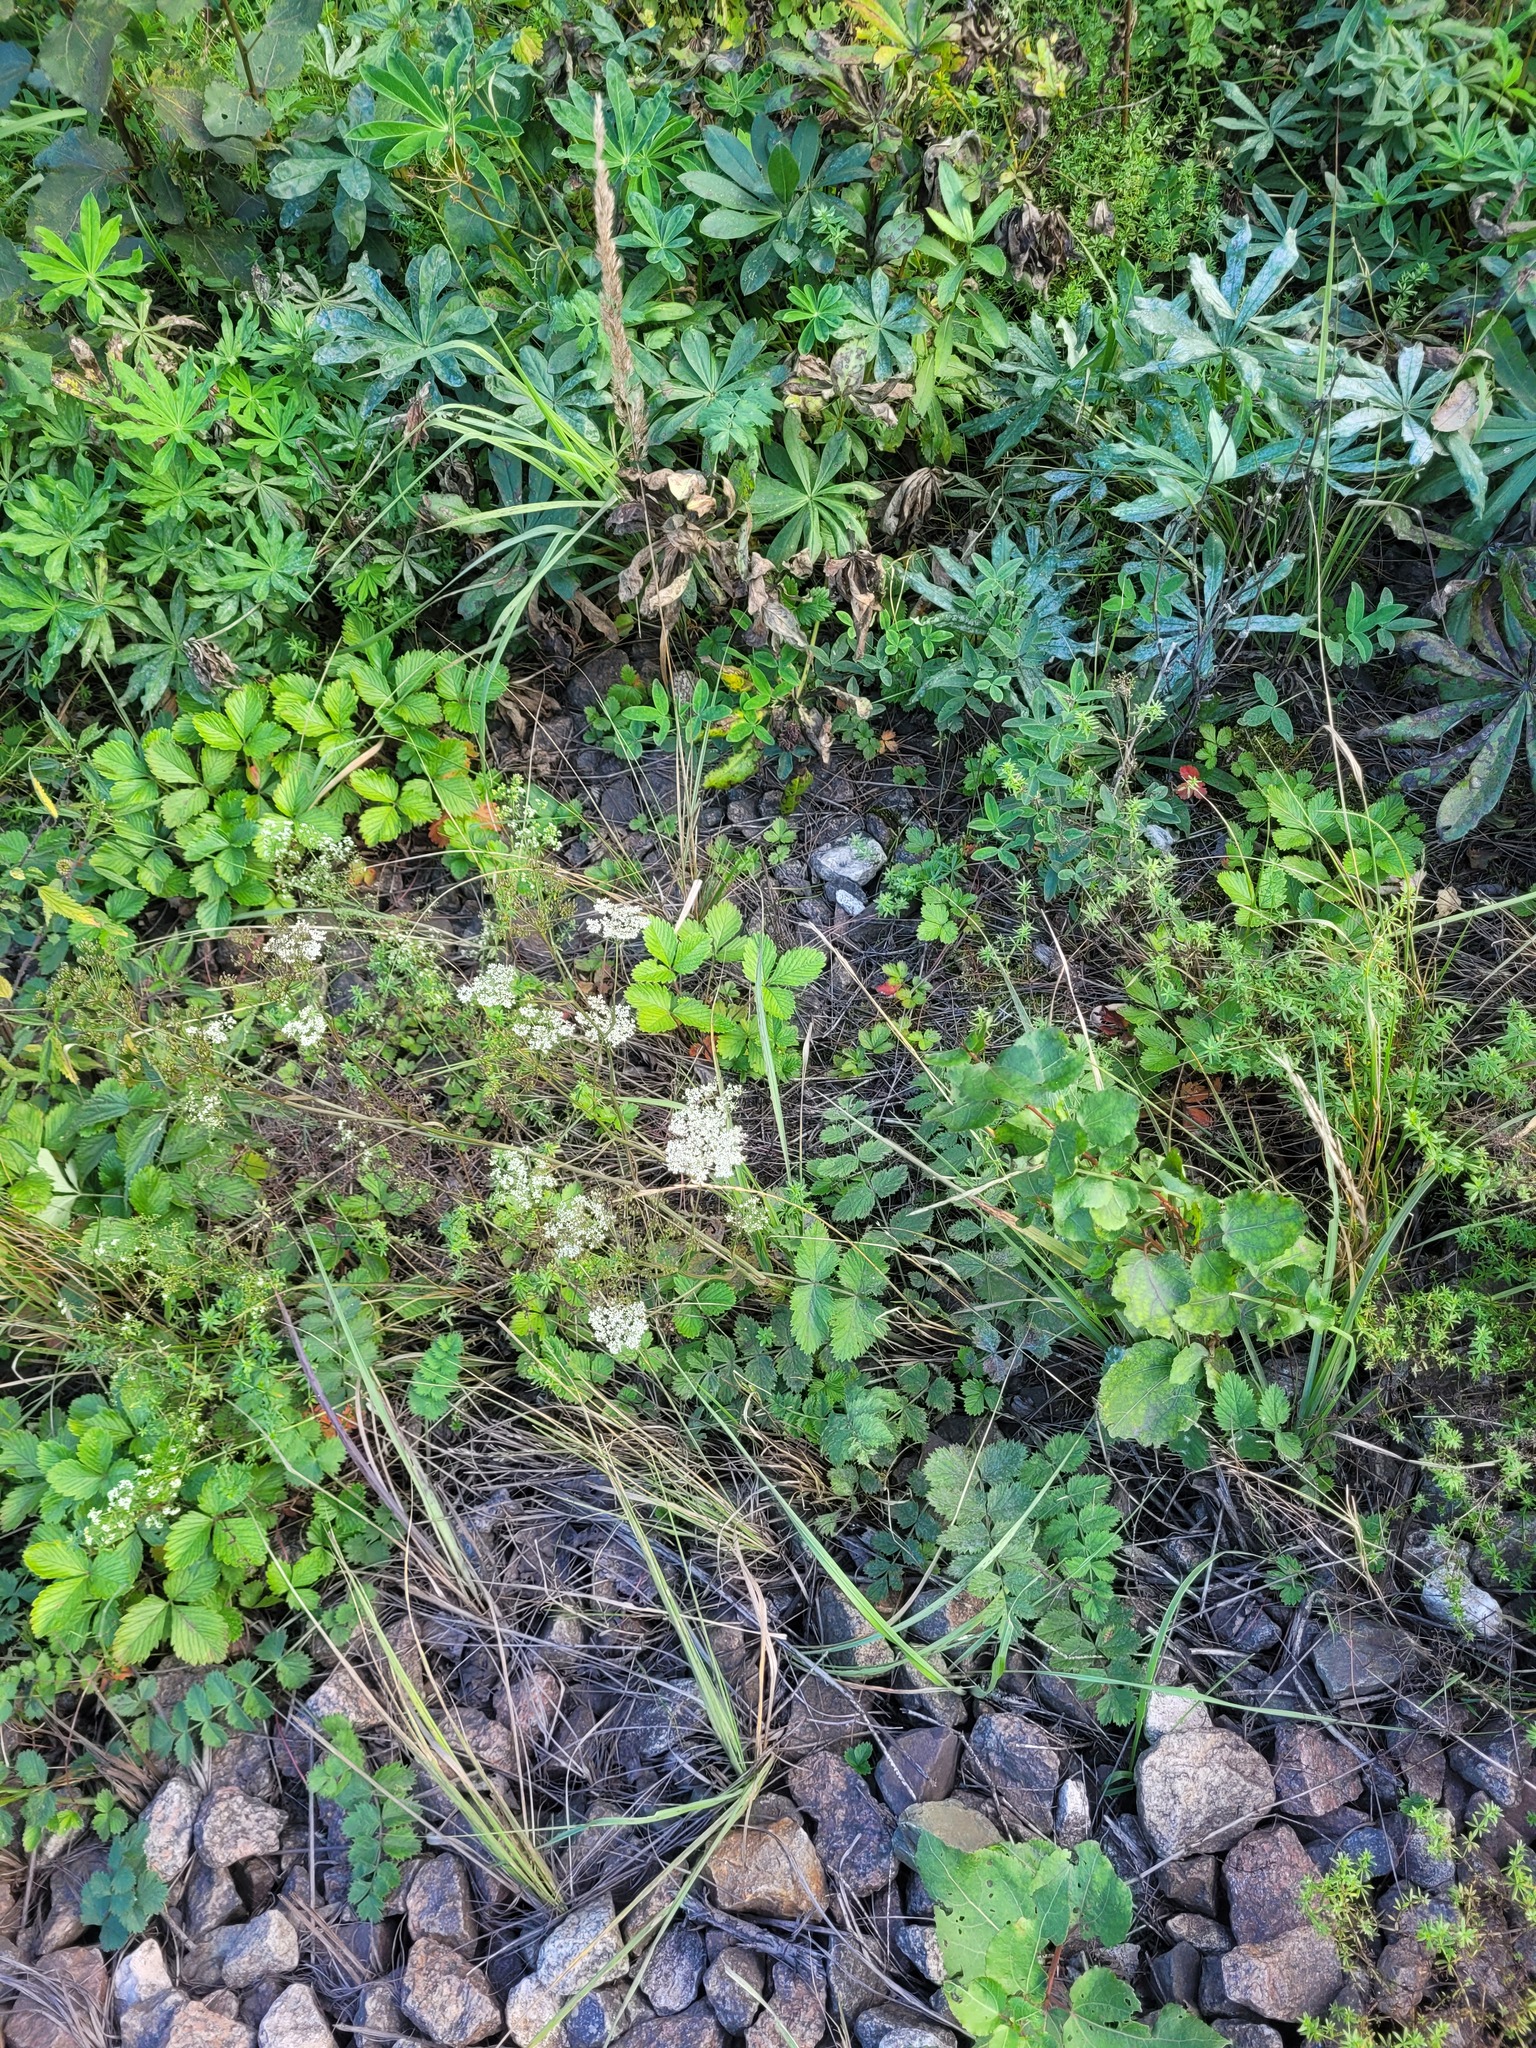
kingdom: Plantae
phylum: Tracheophyta
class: Magnoliopsida
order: Rosales
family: Rosaceae
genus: Fragaria
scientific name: Fragaria vesca
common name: Wild strawberry
